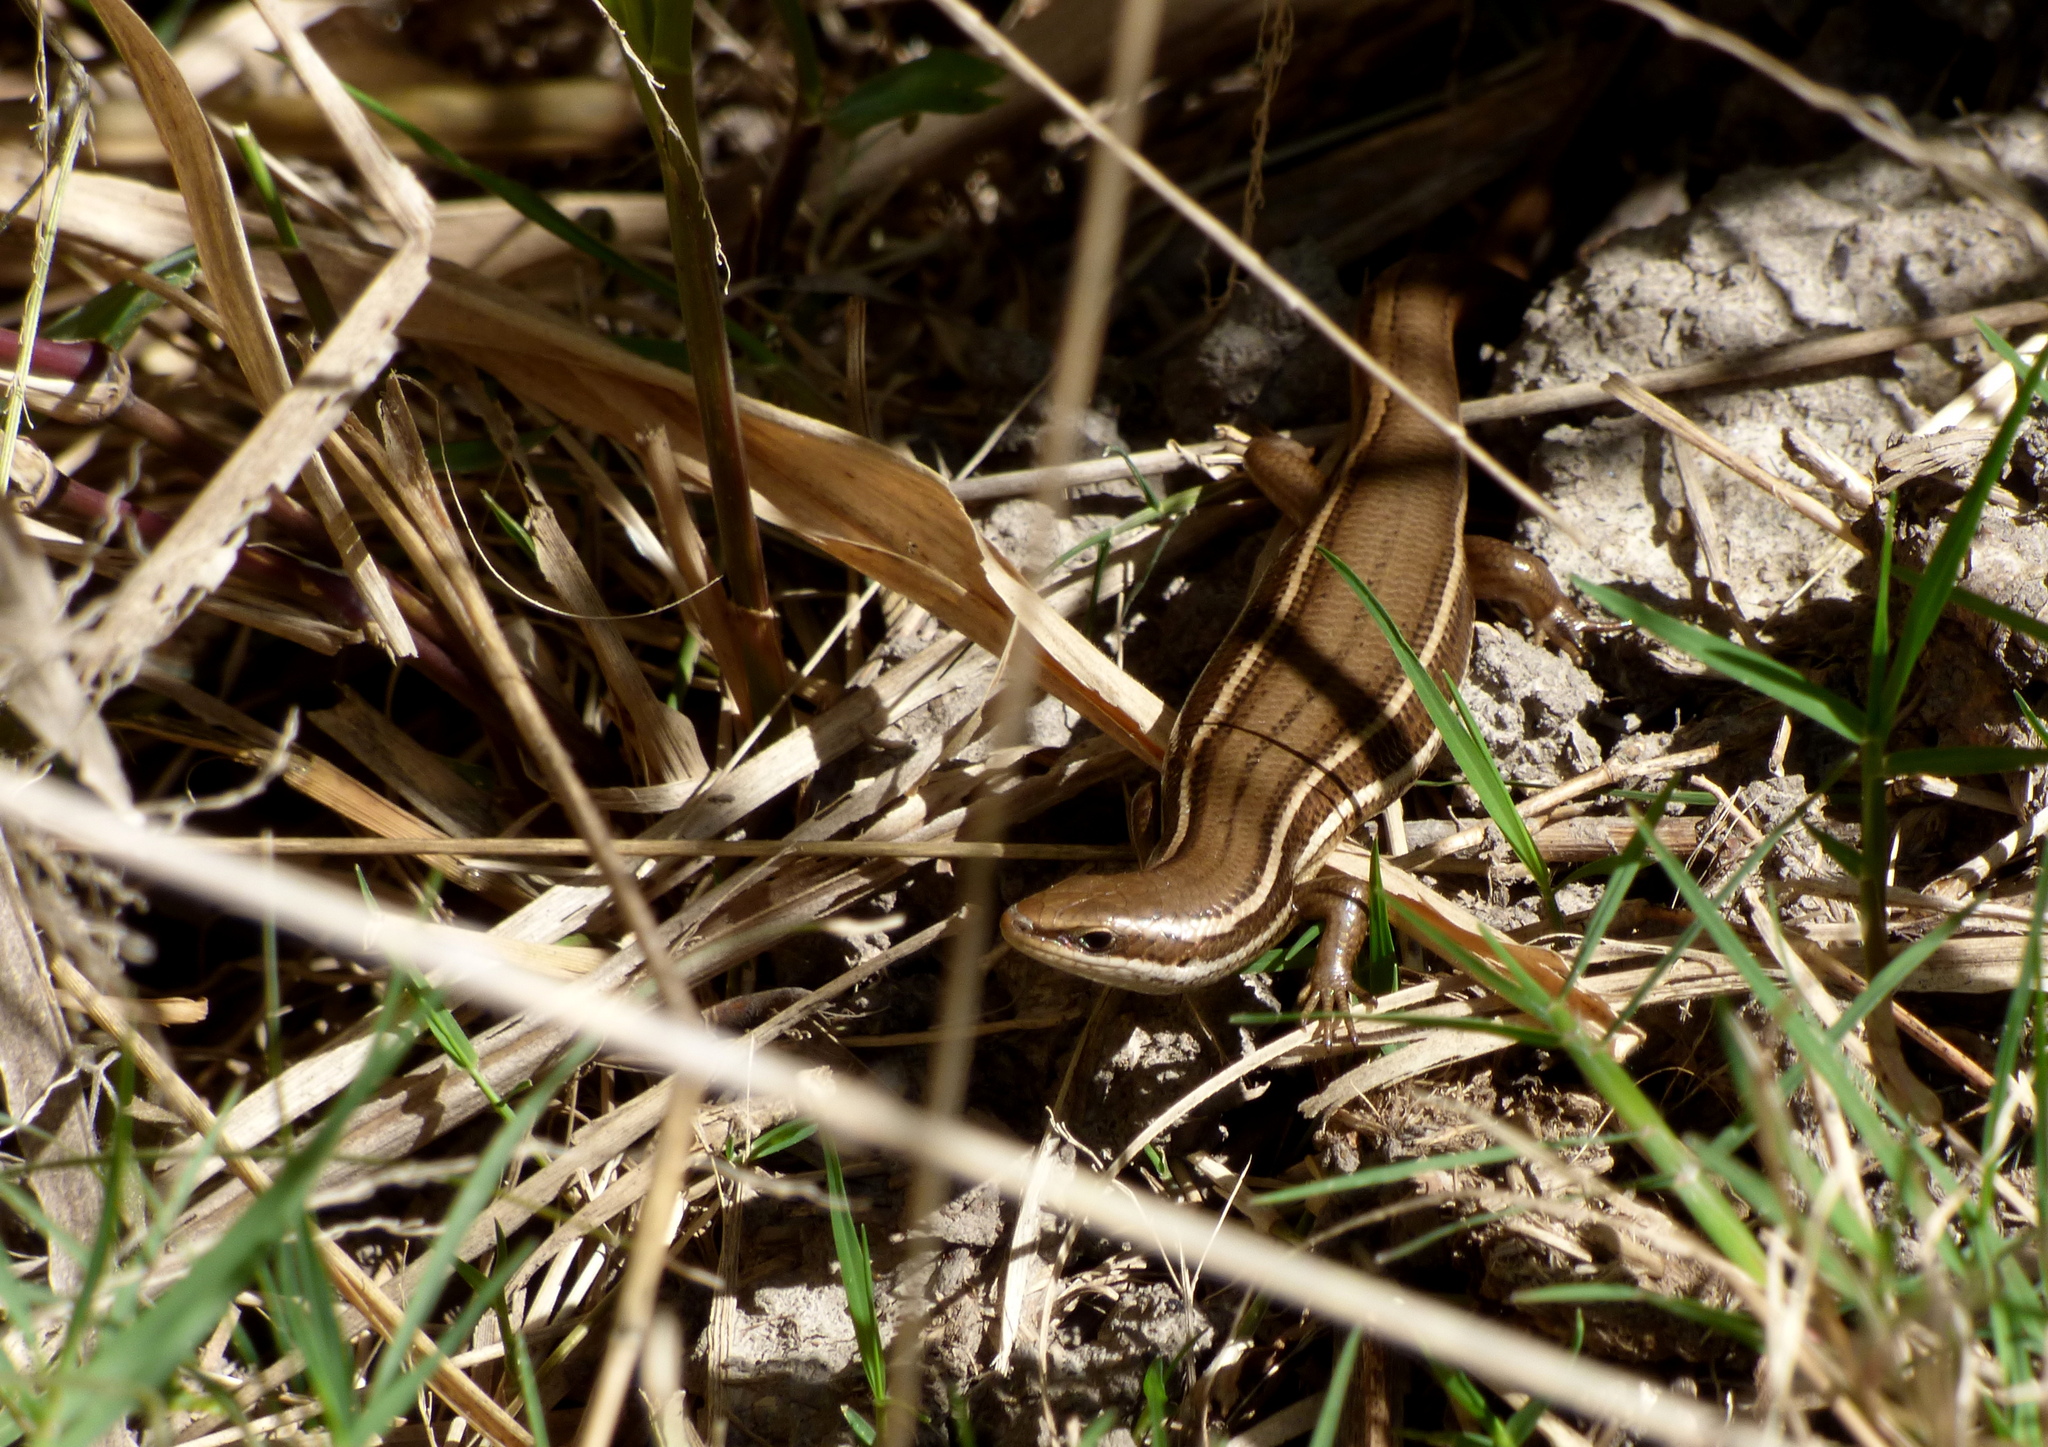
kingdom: Animalia
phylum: Chordata
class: Squamata
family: Scincidae
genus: Aspronema
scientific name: Aspronema dorsivittatum
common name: Paraguay mabuya
